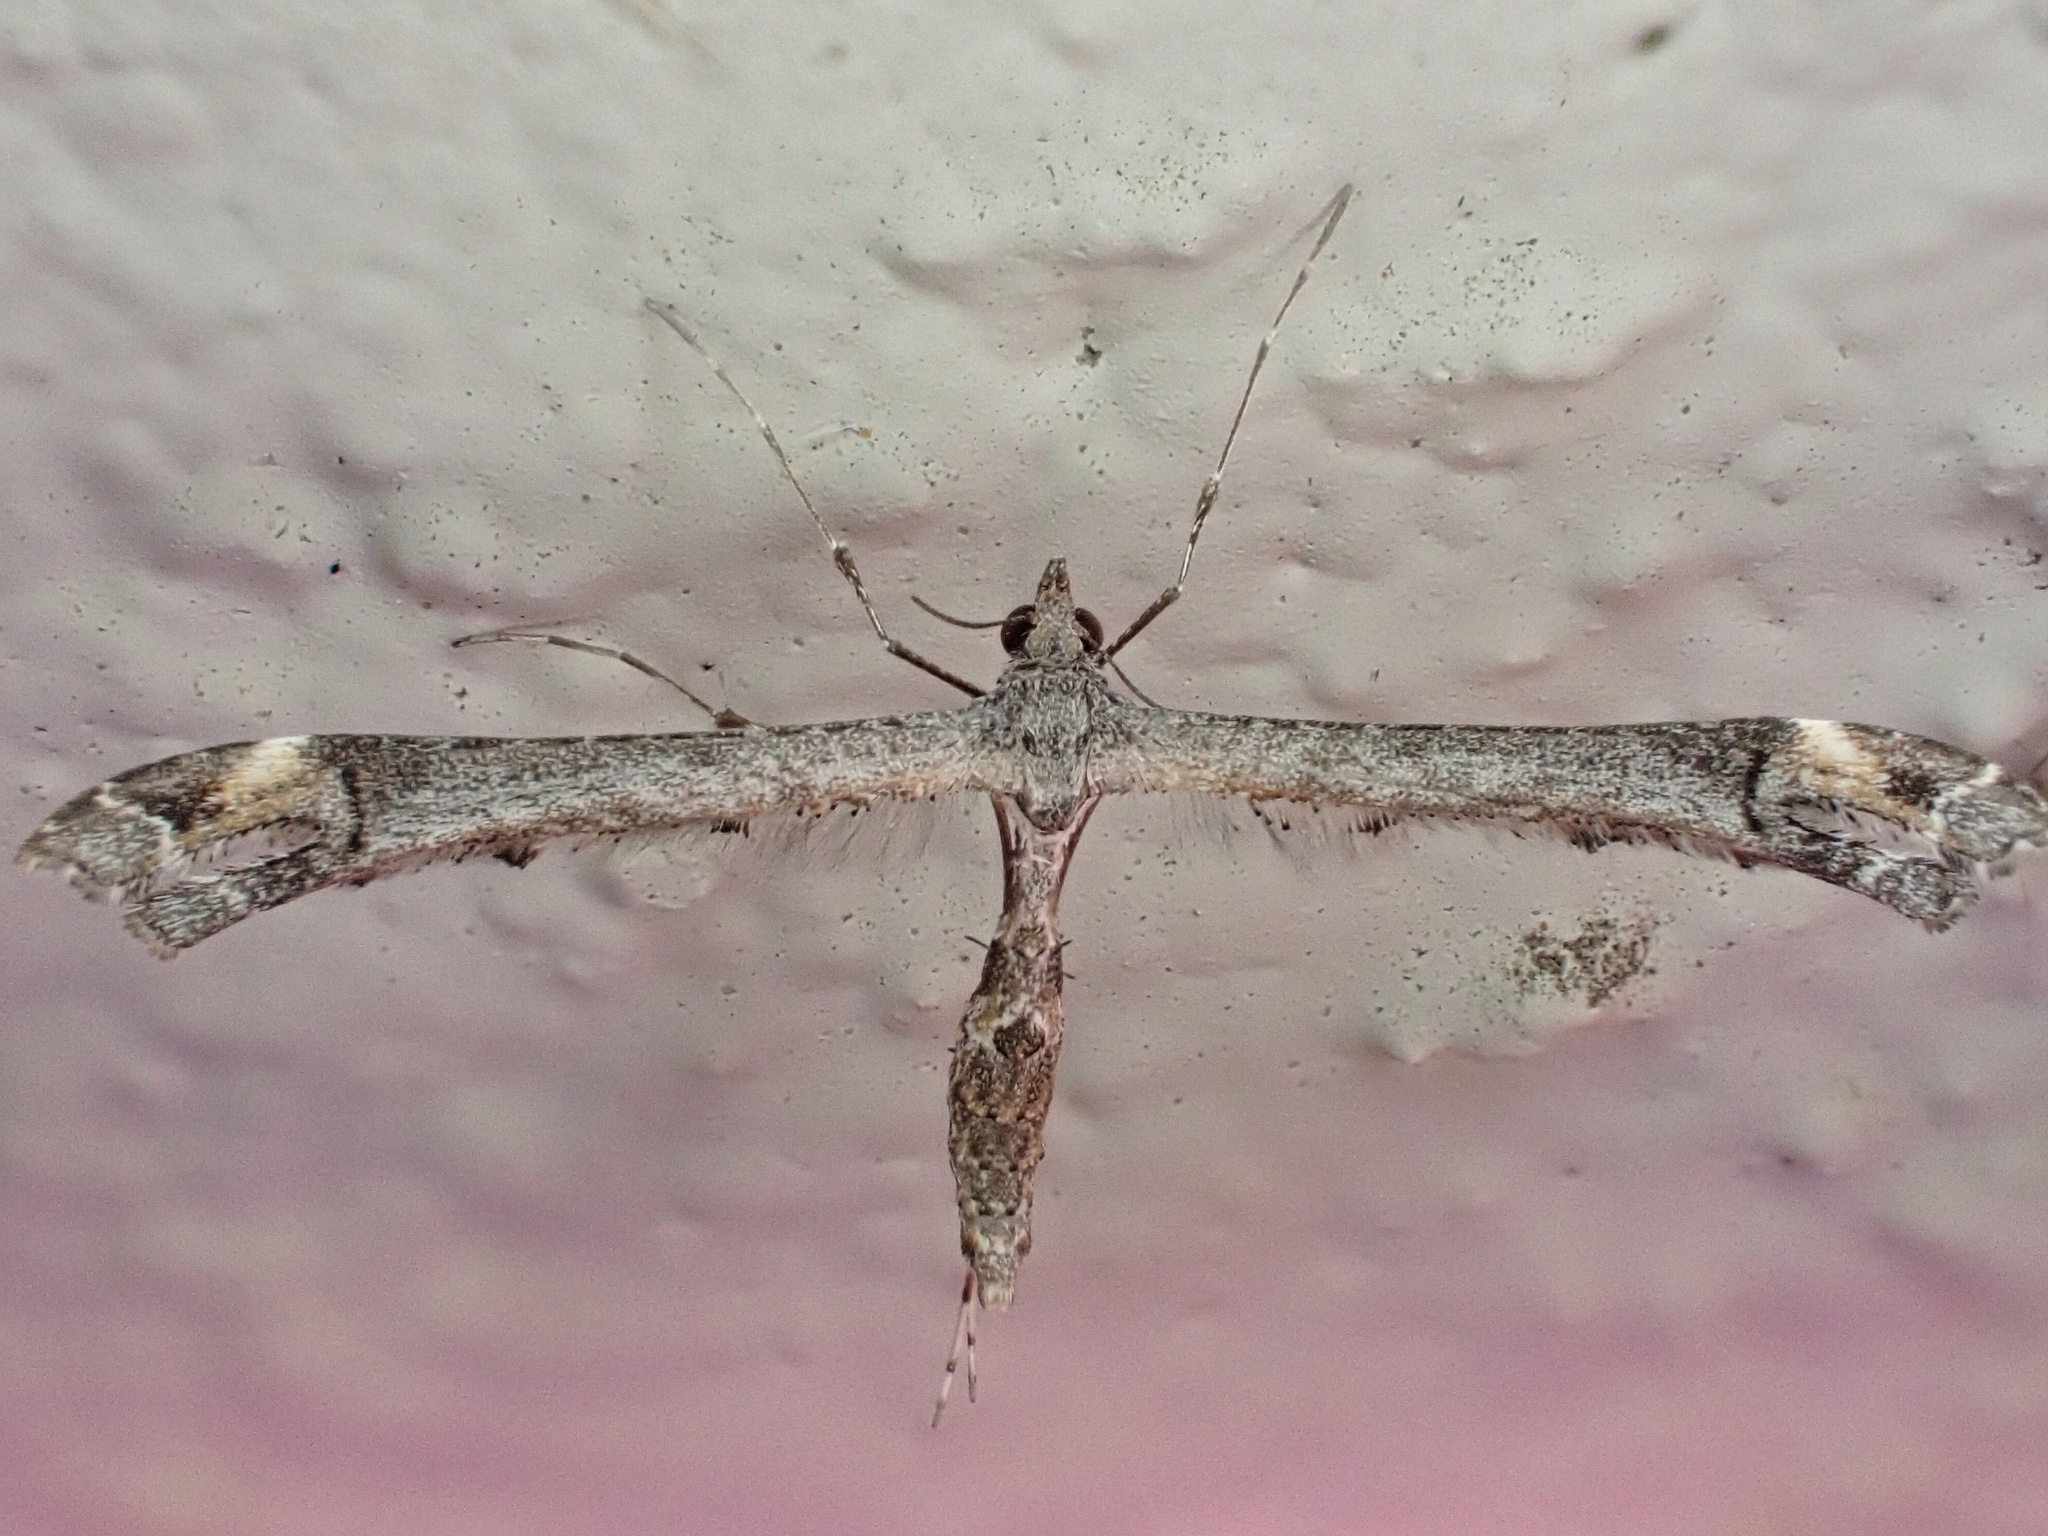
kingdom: Animalia
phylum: Arthropoda
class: Insecta
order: Lepidoptera
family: Pterophoridae
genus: Anstenoptilia
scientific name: Anstenoptilia marmarodactyla
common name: Moth
